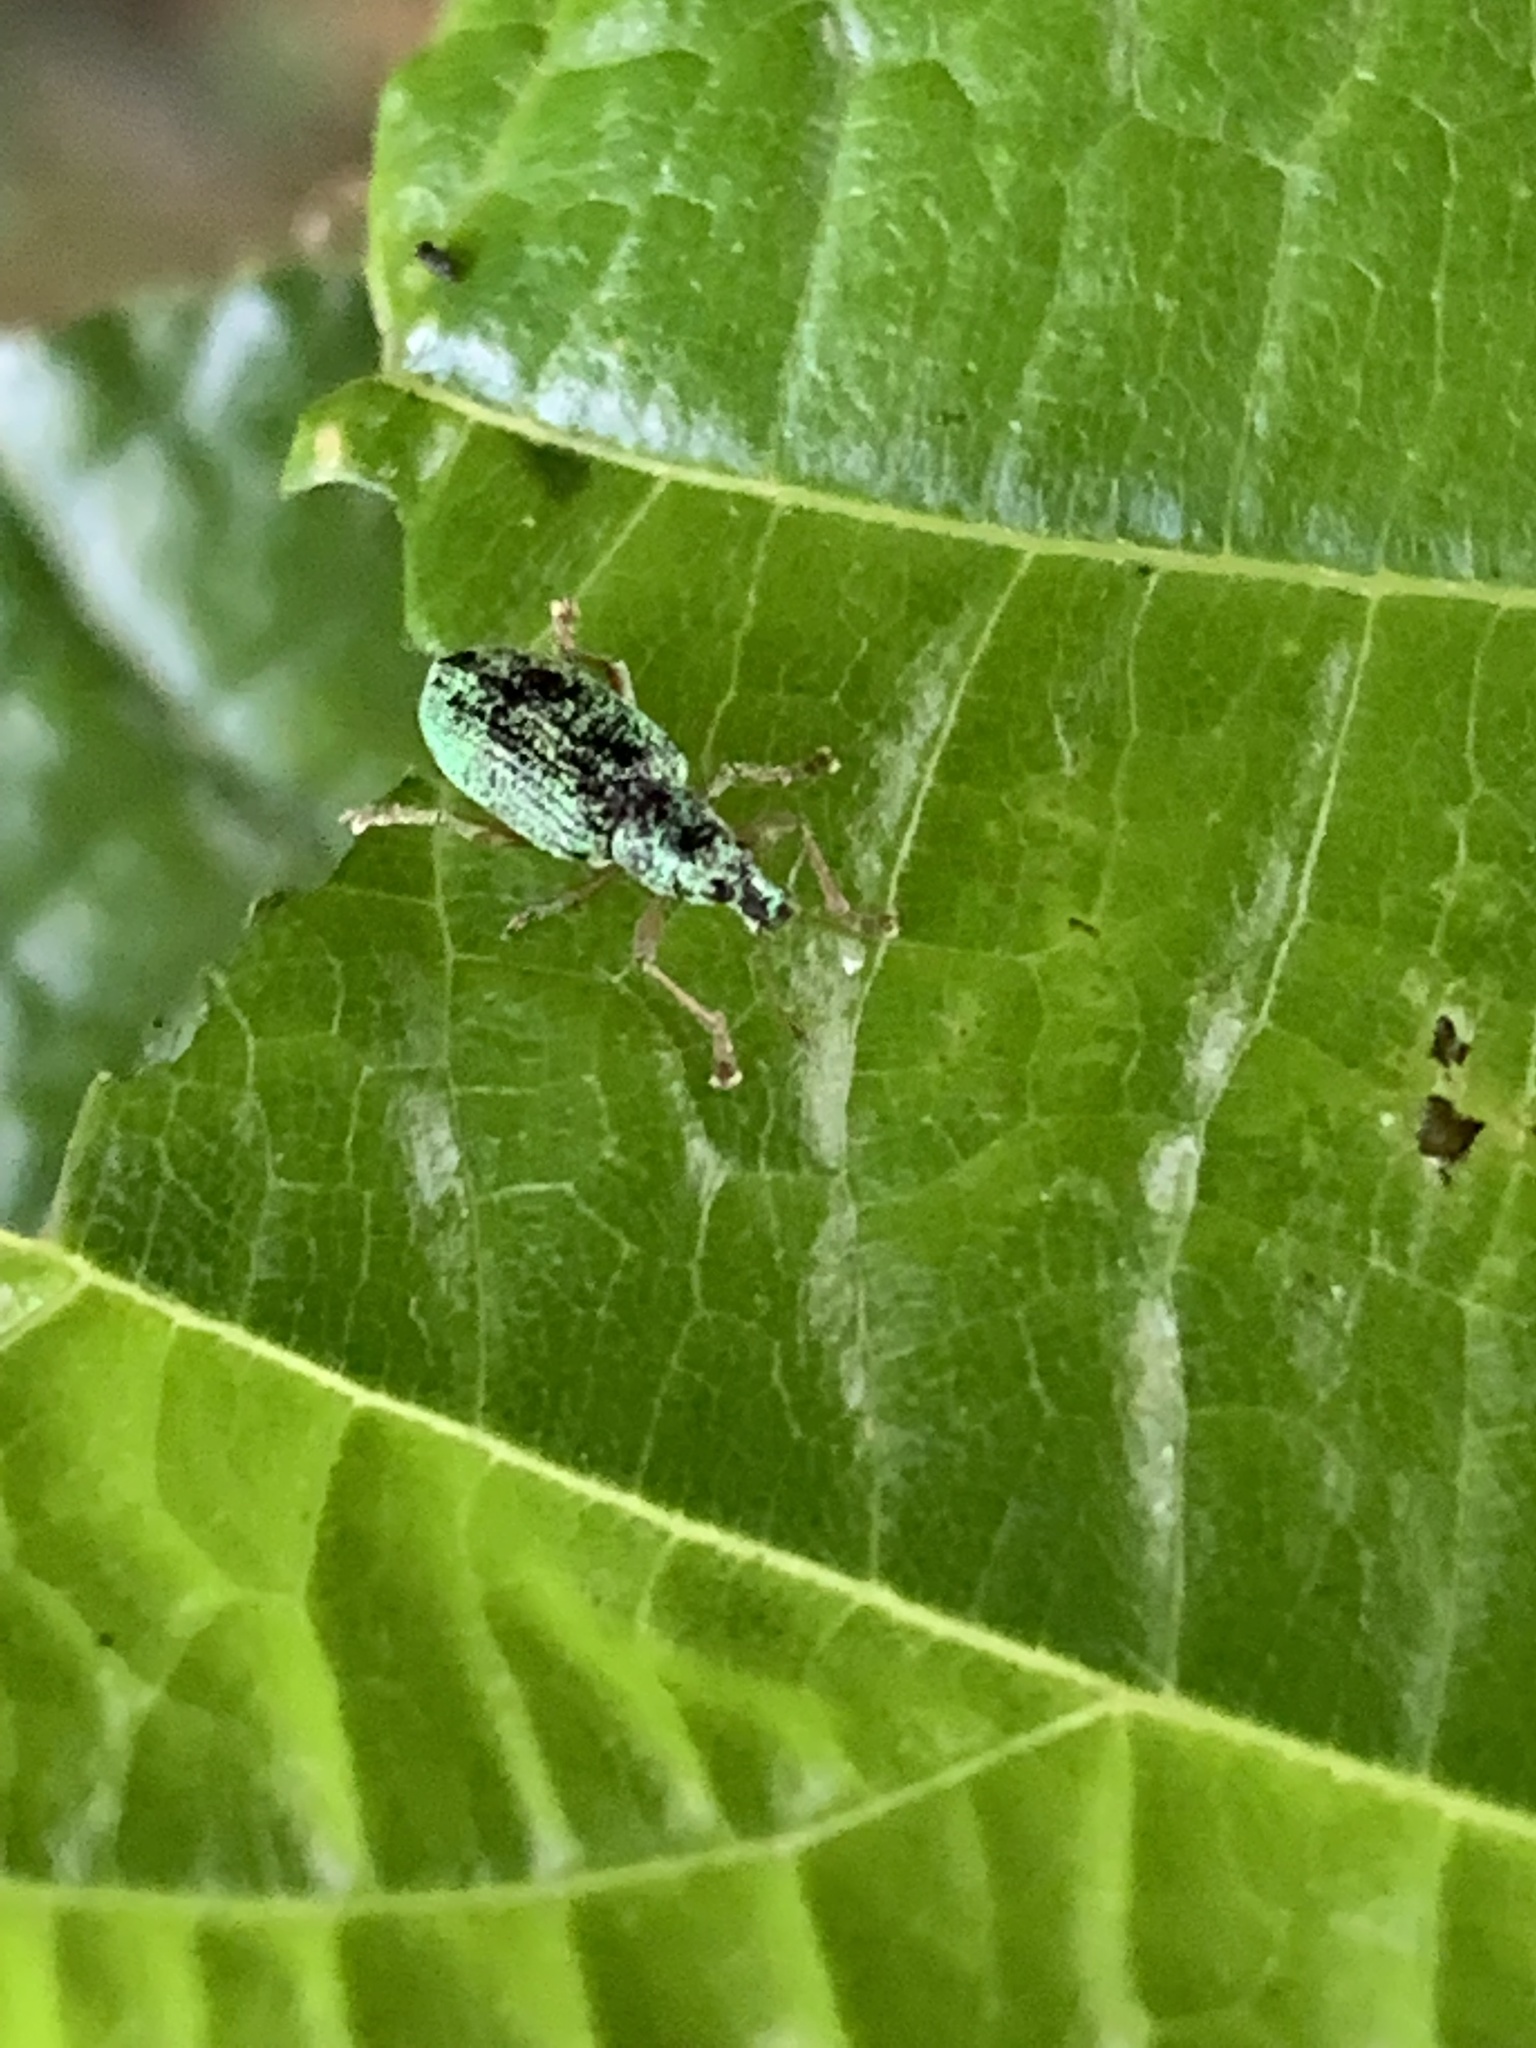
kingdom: Animalia
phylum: Arthropoda
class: Insecta
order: Coleoptera
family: Curculionidae
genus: Polydrusus
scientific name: Polydrusus formosus
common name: Weevil
